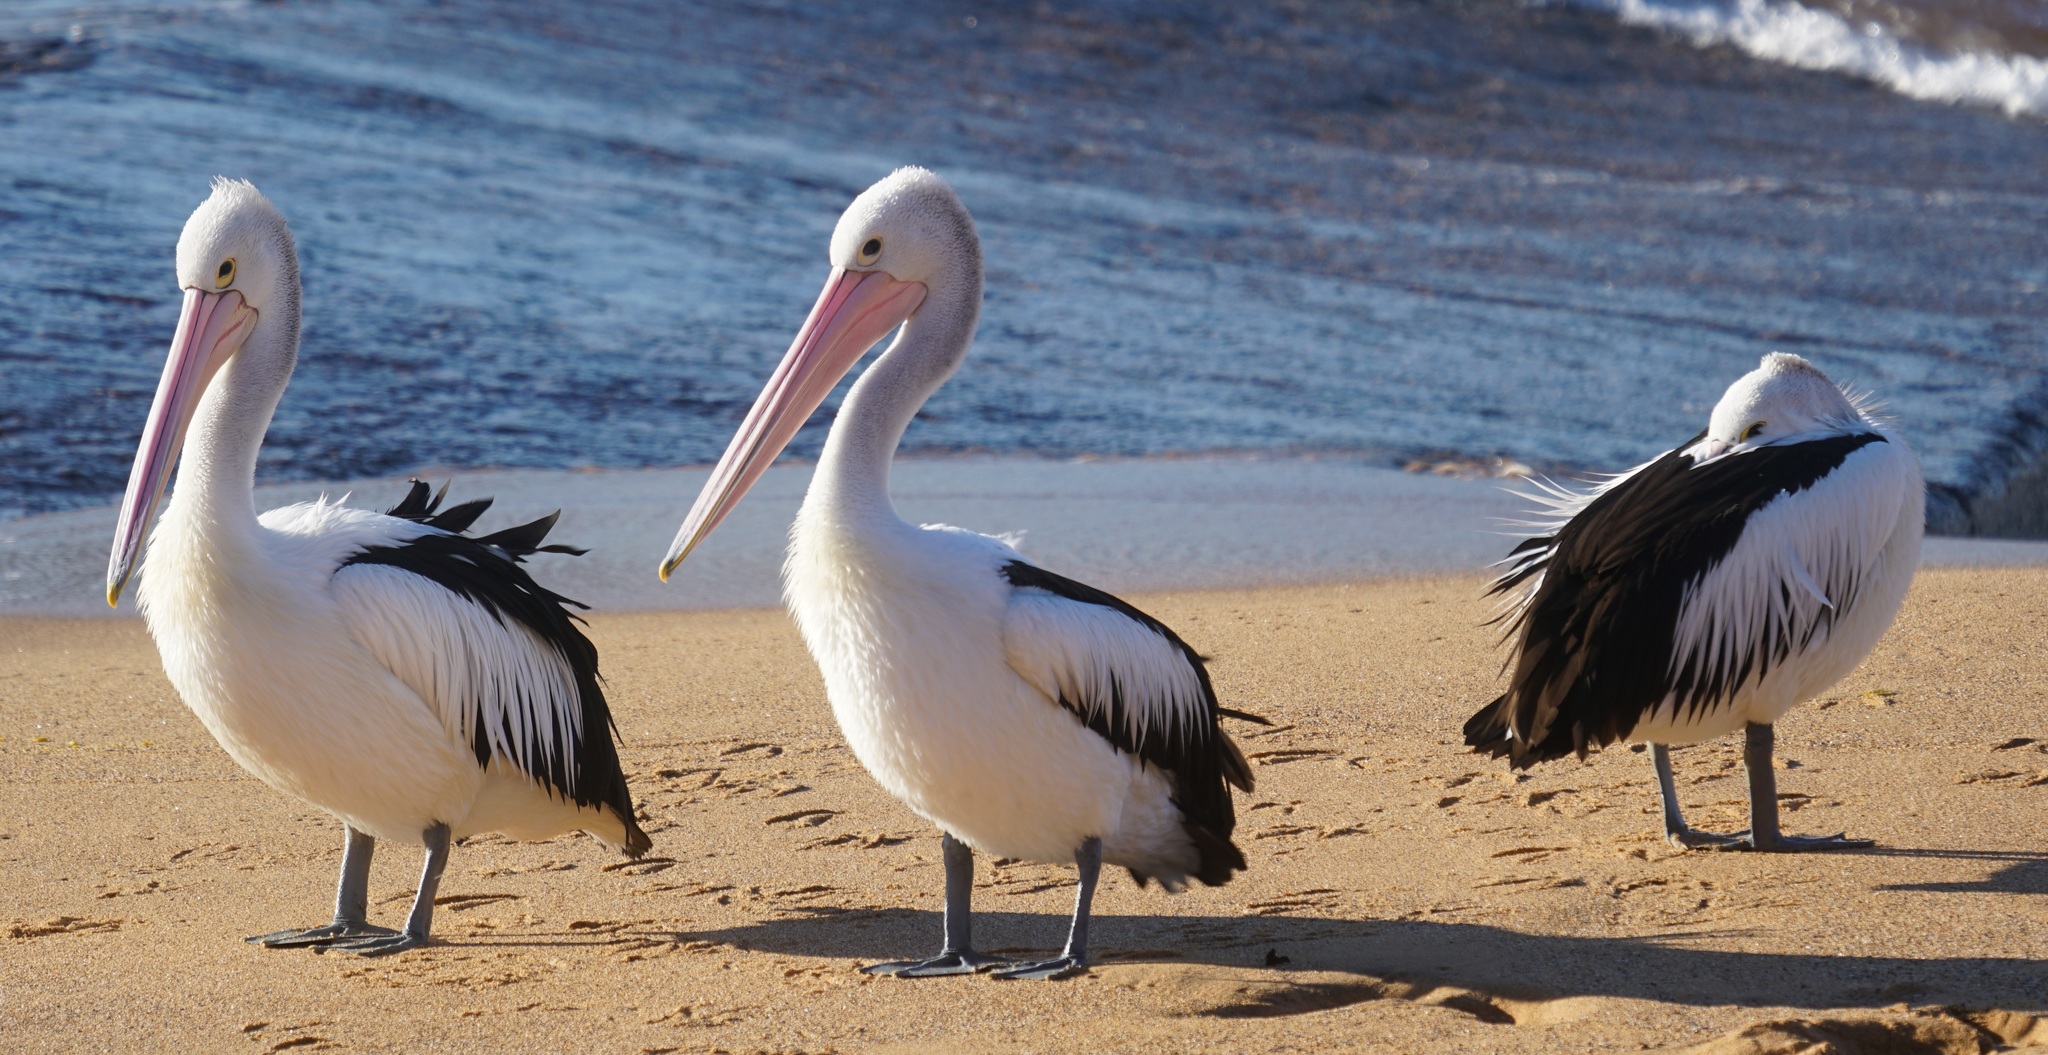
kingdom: Animalia
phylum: Chordata
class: Aves
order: Pelecaniformes
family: Pelecanidae
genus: Pelecanus
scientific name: Pelecanus conspicillatus
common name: Australian pelican
